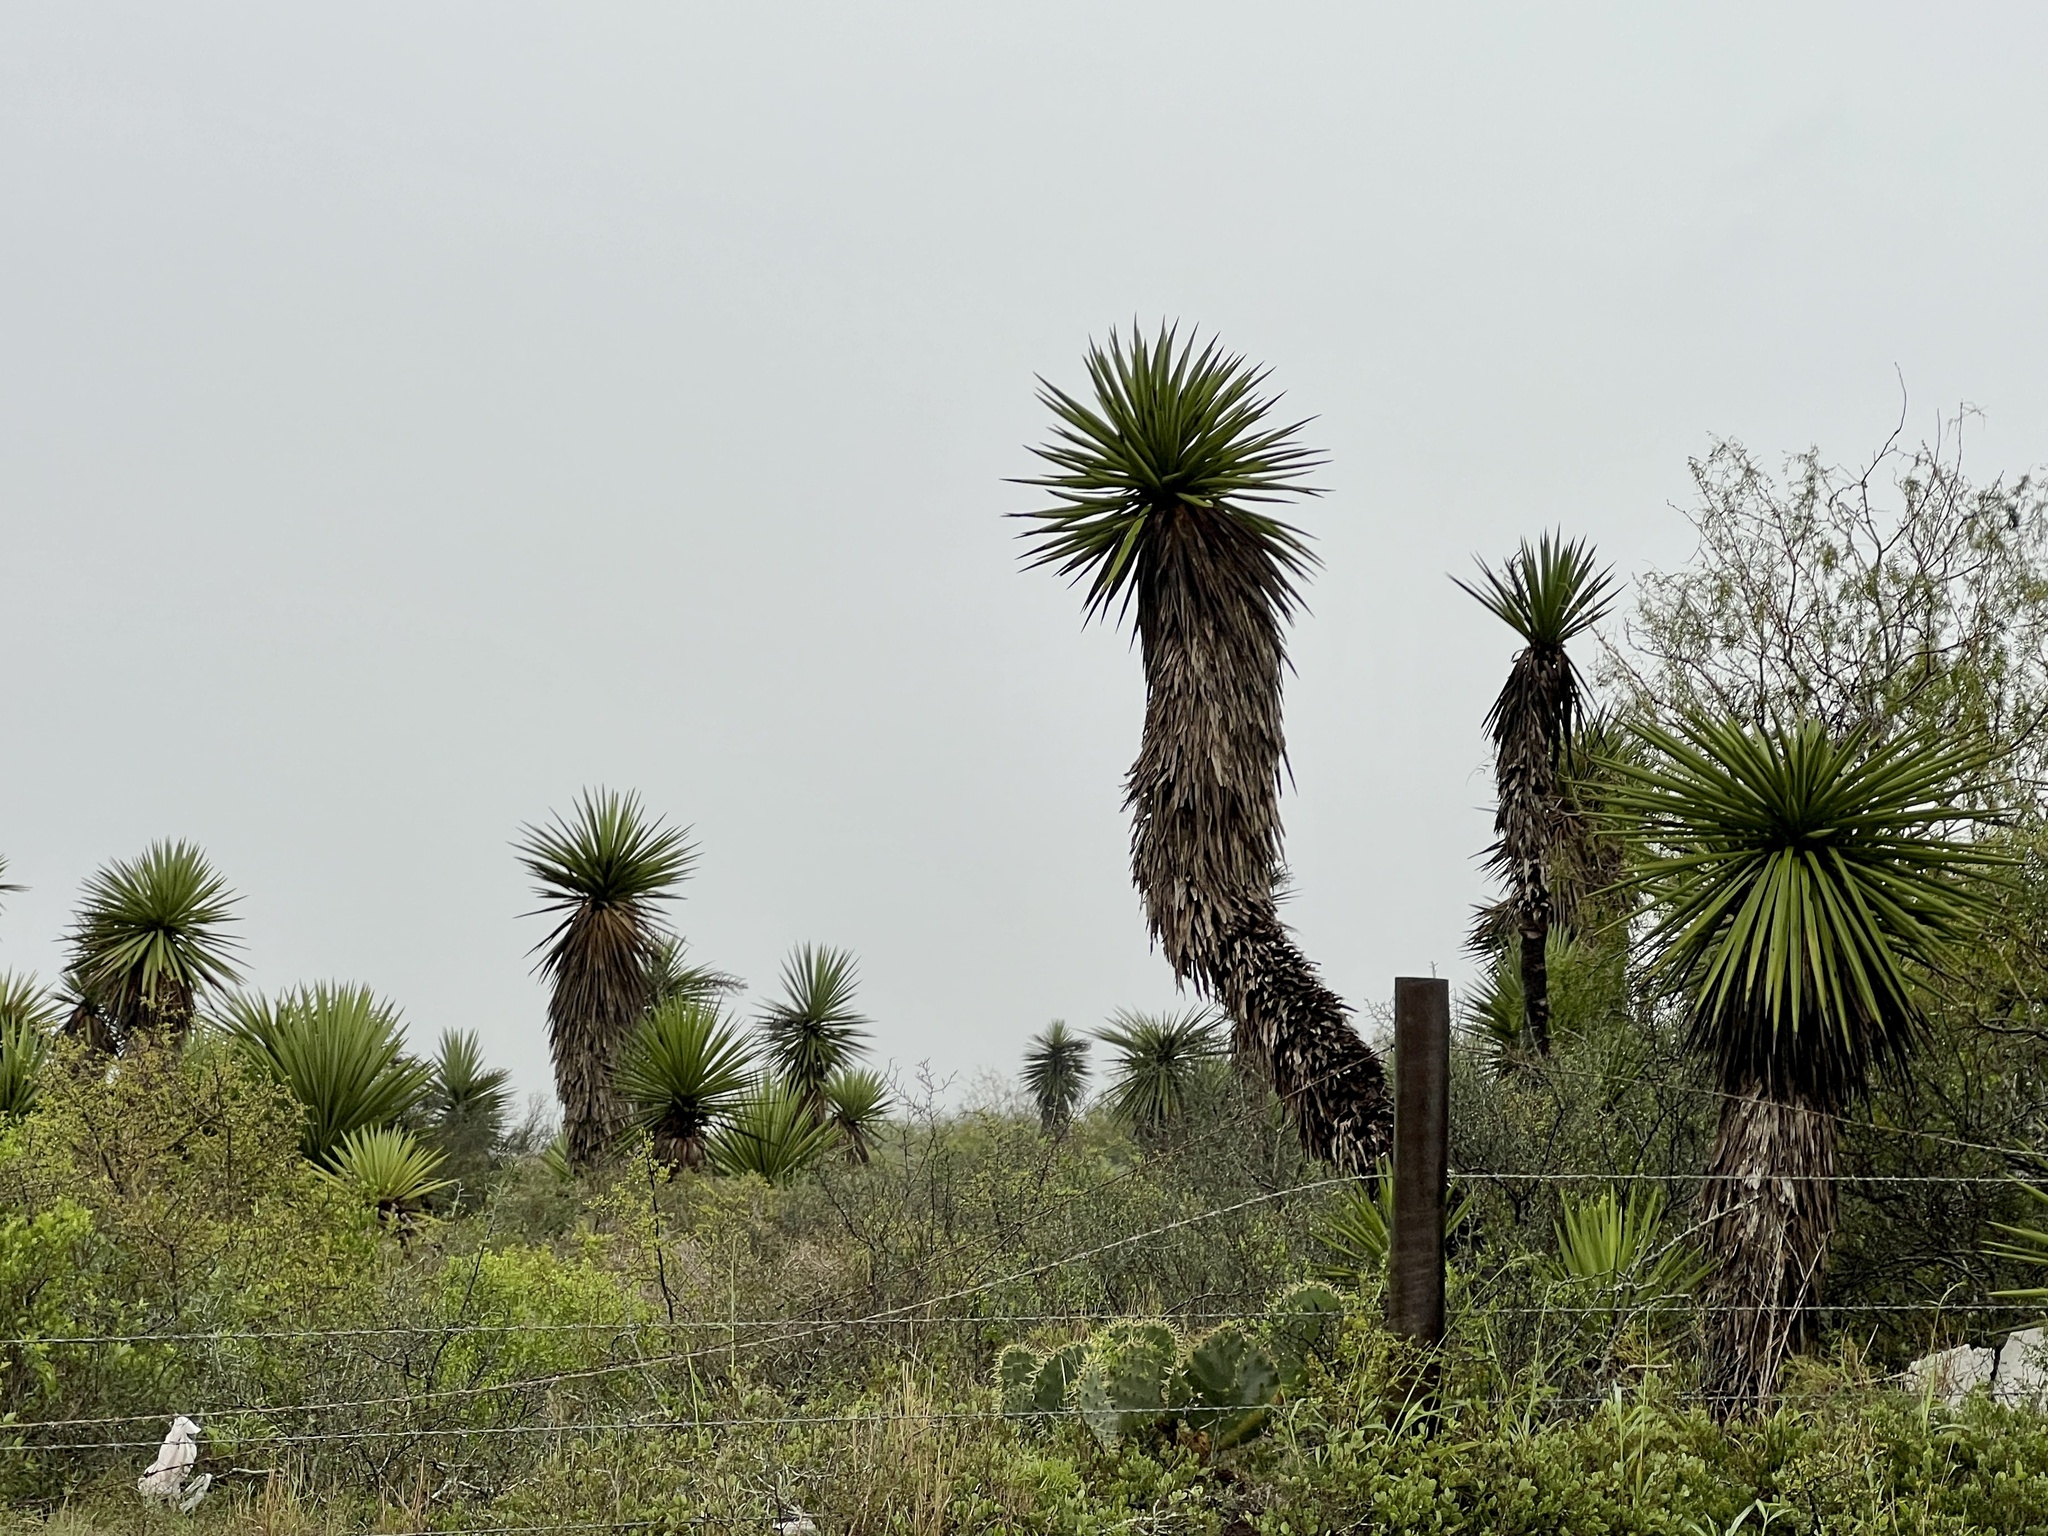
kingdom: Plantae
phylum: Tracheophyta
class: Liliopsida
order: Asparagales
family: Asparagaceae
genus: Yucca
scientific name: Yucca treculiana
